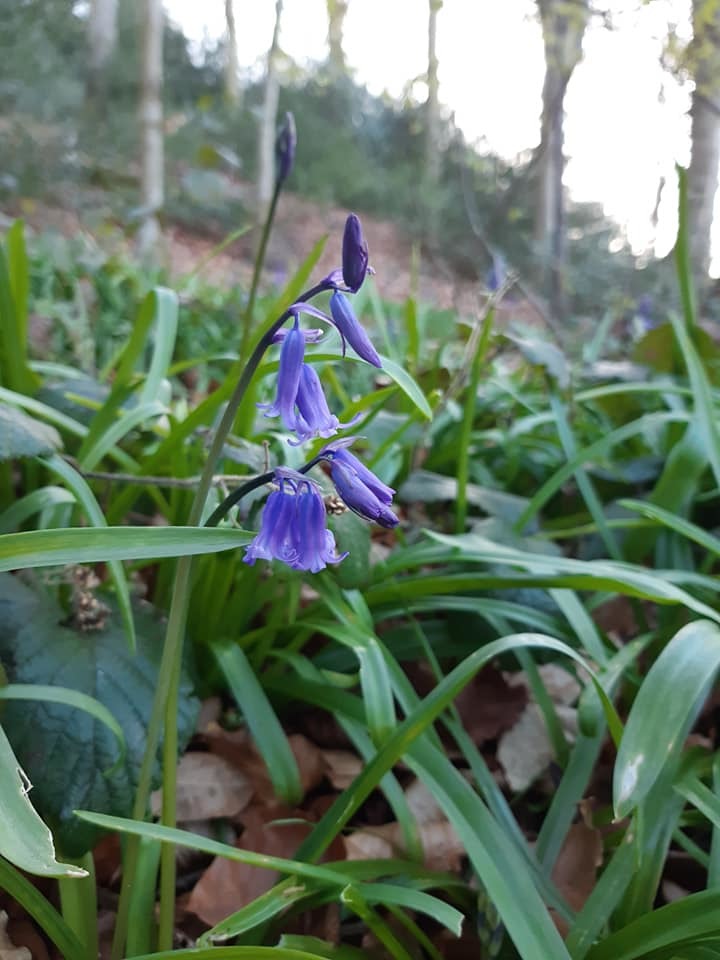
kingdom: Plantae
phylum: Tracheophyta
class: Liliopsida
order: Asparagales
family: Asparagaceae
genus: Hyacinthoides
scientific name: Hyacinthoides non-scripta
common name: Bluebell
